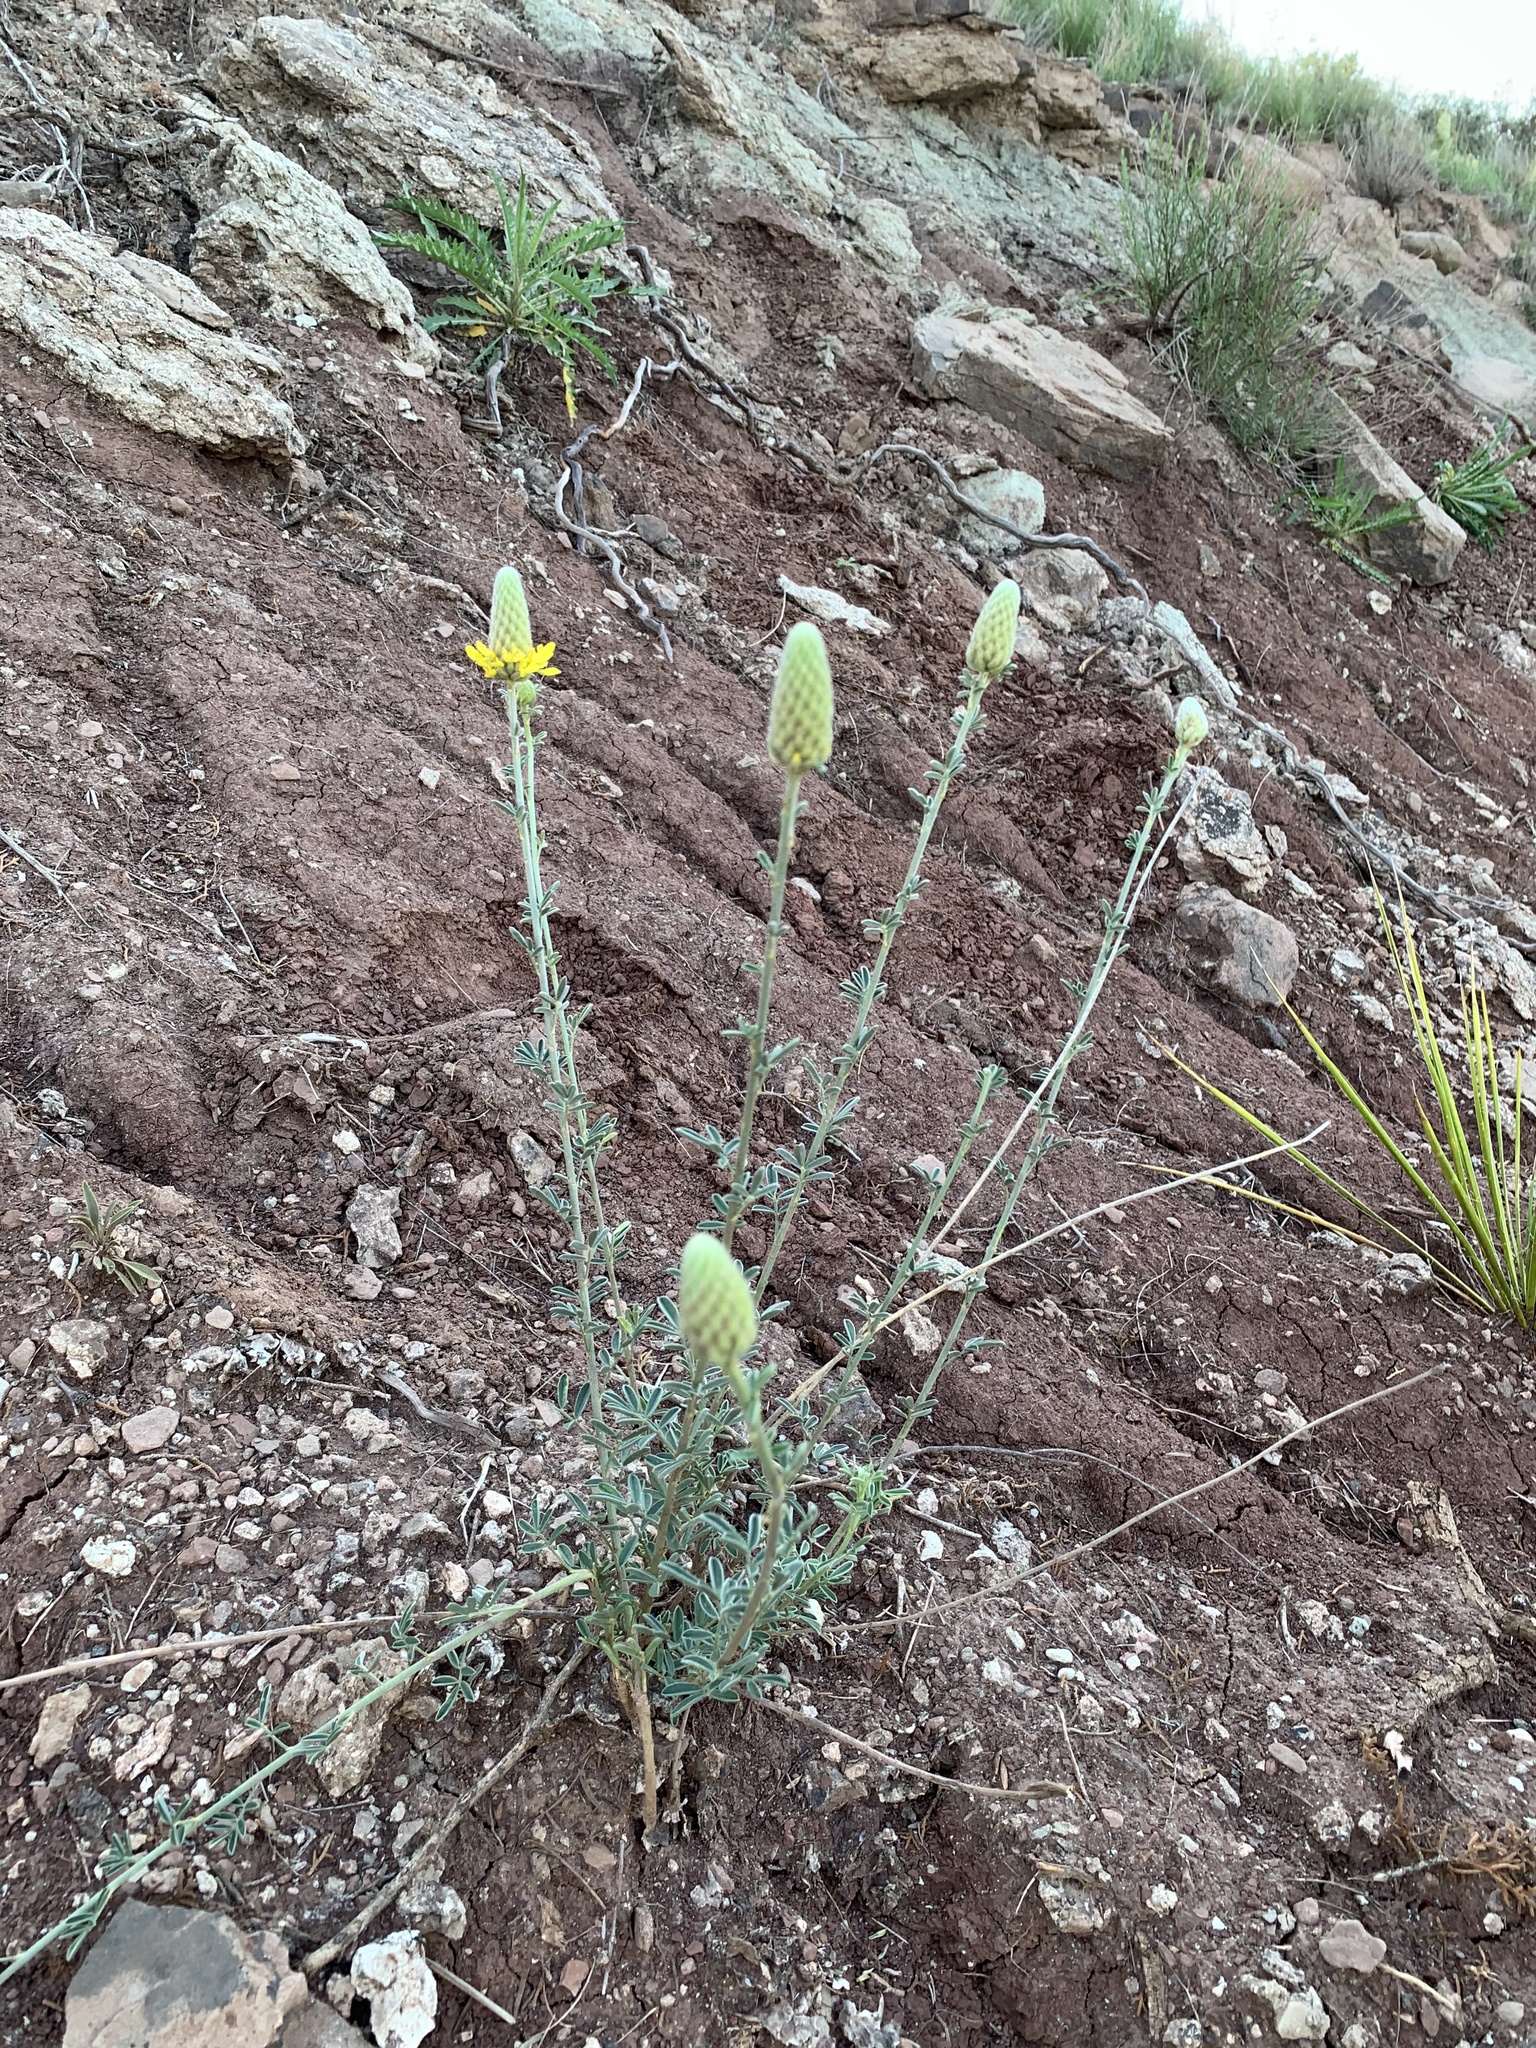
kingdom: Plantae
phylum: Tracheophyta
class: Magnoliopsida
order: Fabales
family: Fabaceae
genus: Dalea
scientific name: Dalea aurea
